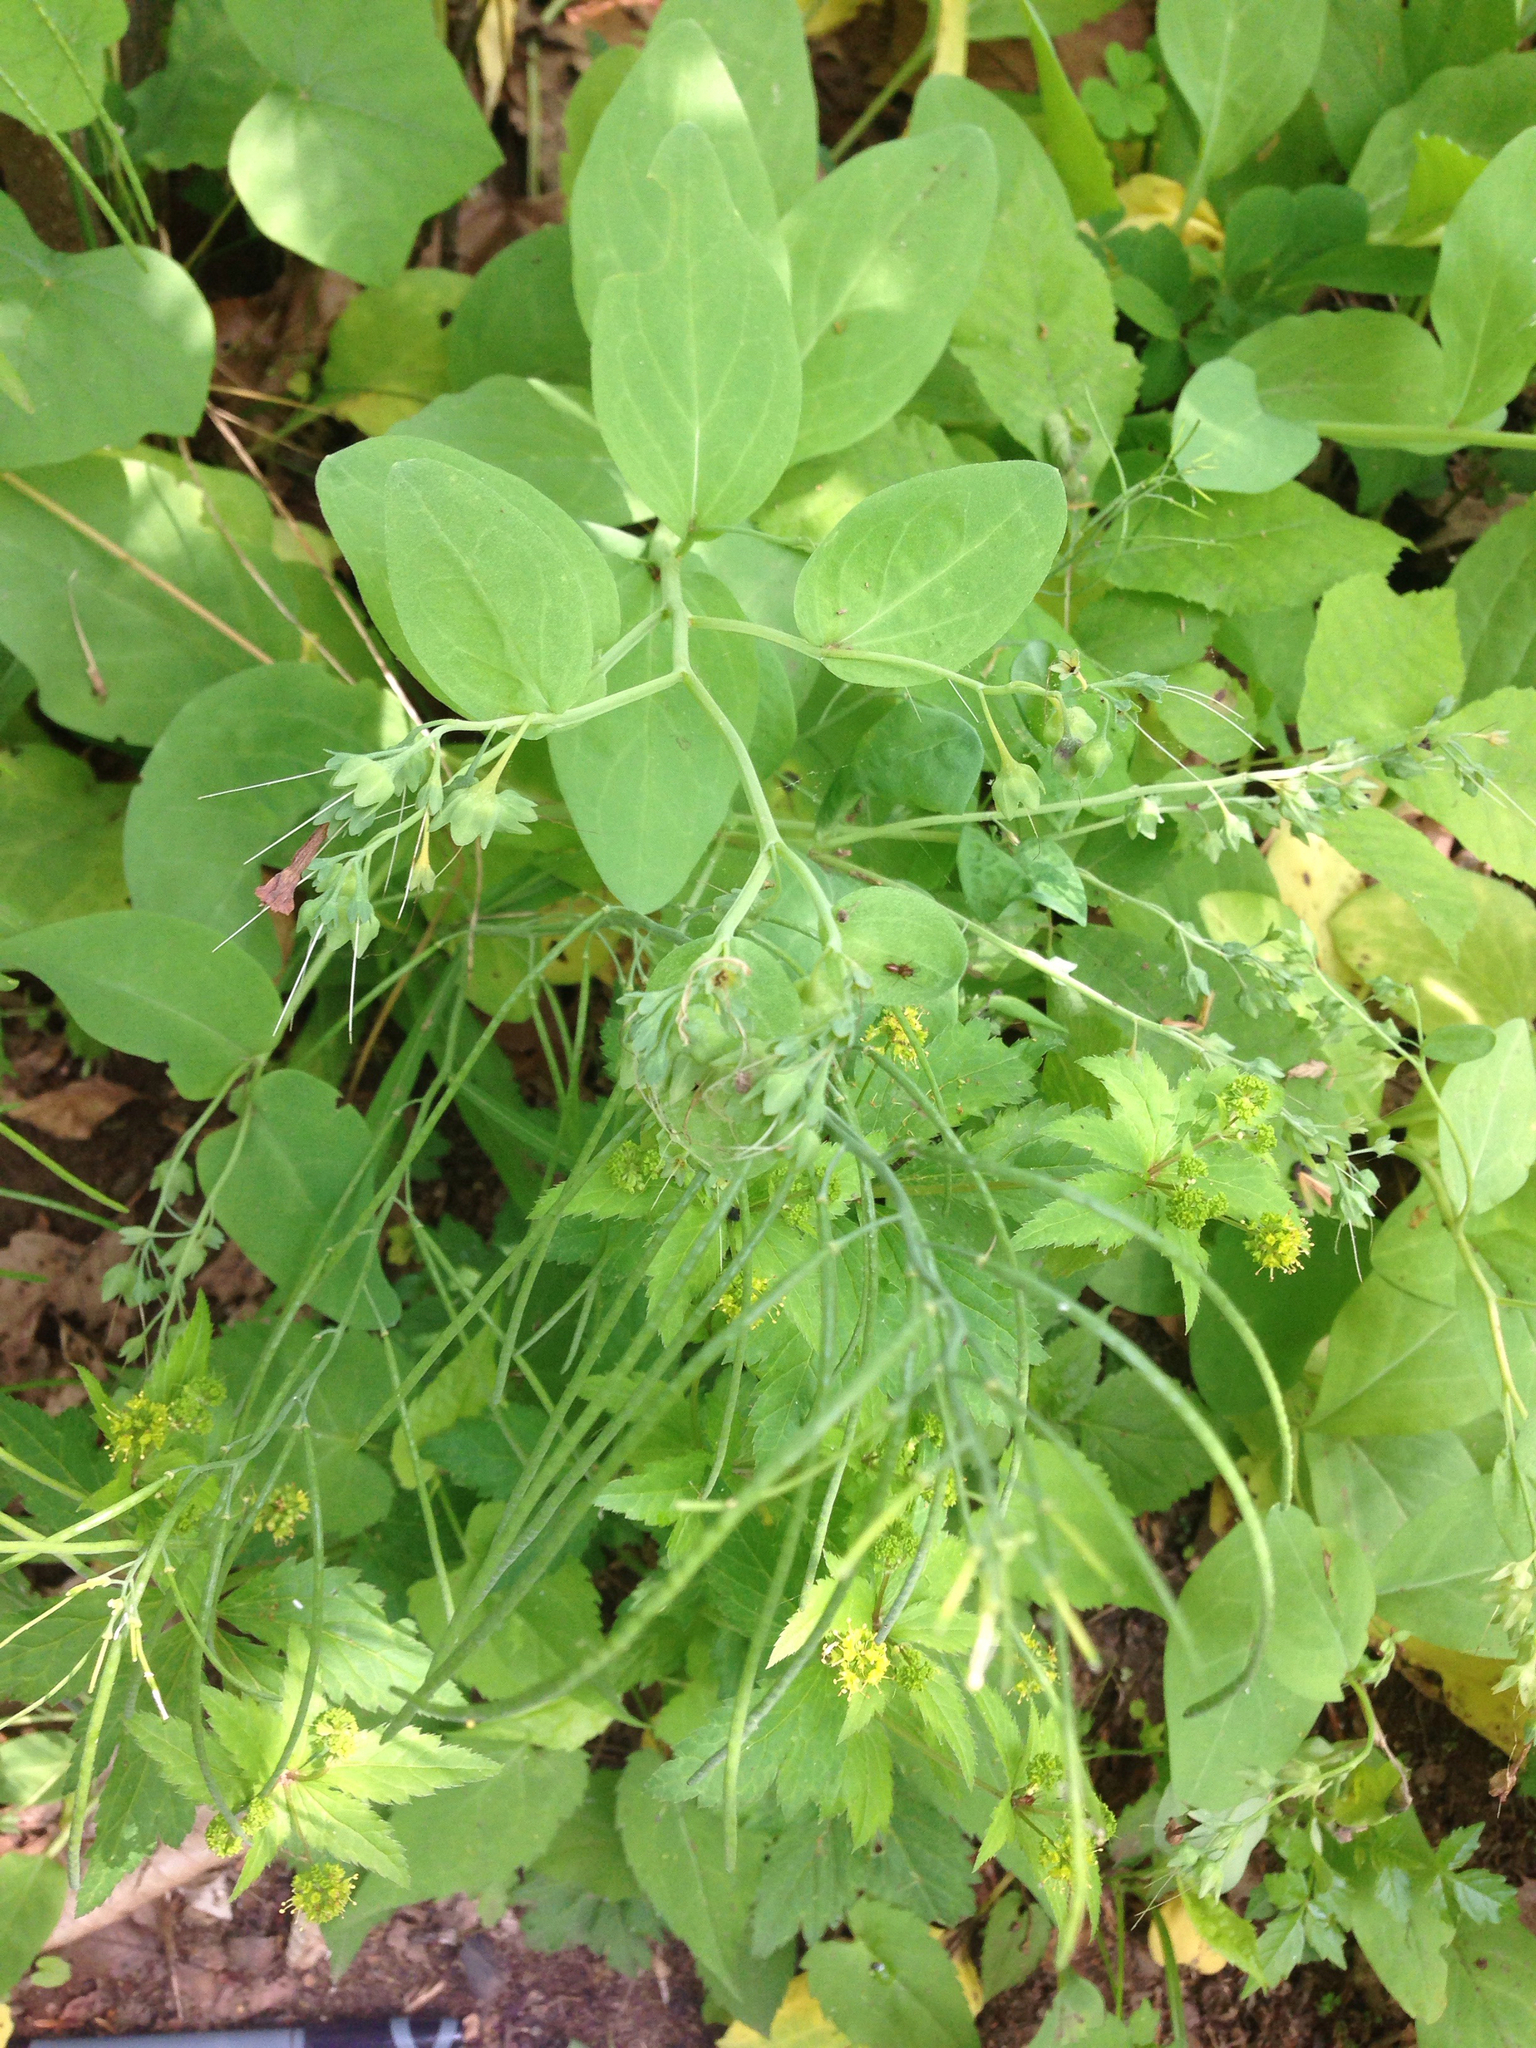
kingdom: Plantae
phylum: Tracheophyta
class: Magnoliopsida
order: Brassicales
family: Brassicaceae
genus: Borodinia
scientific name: Borodinia laevigata
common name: Smooth rockcress
